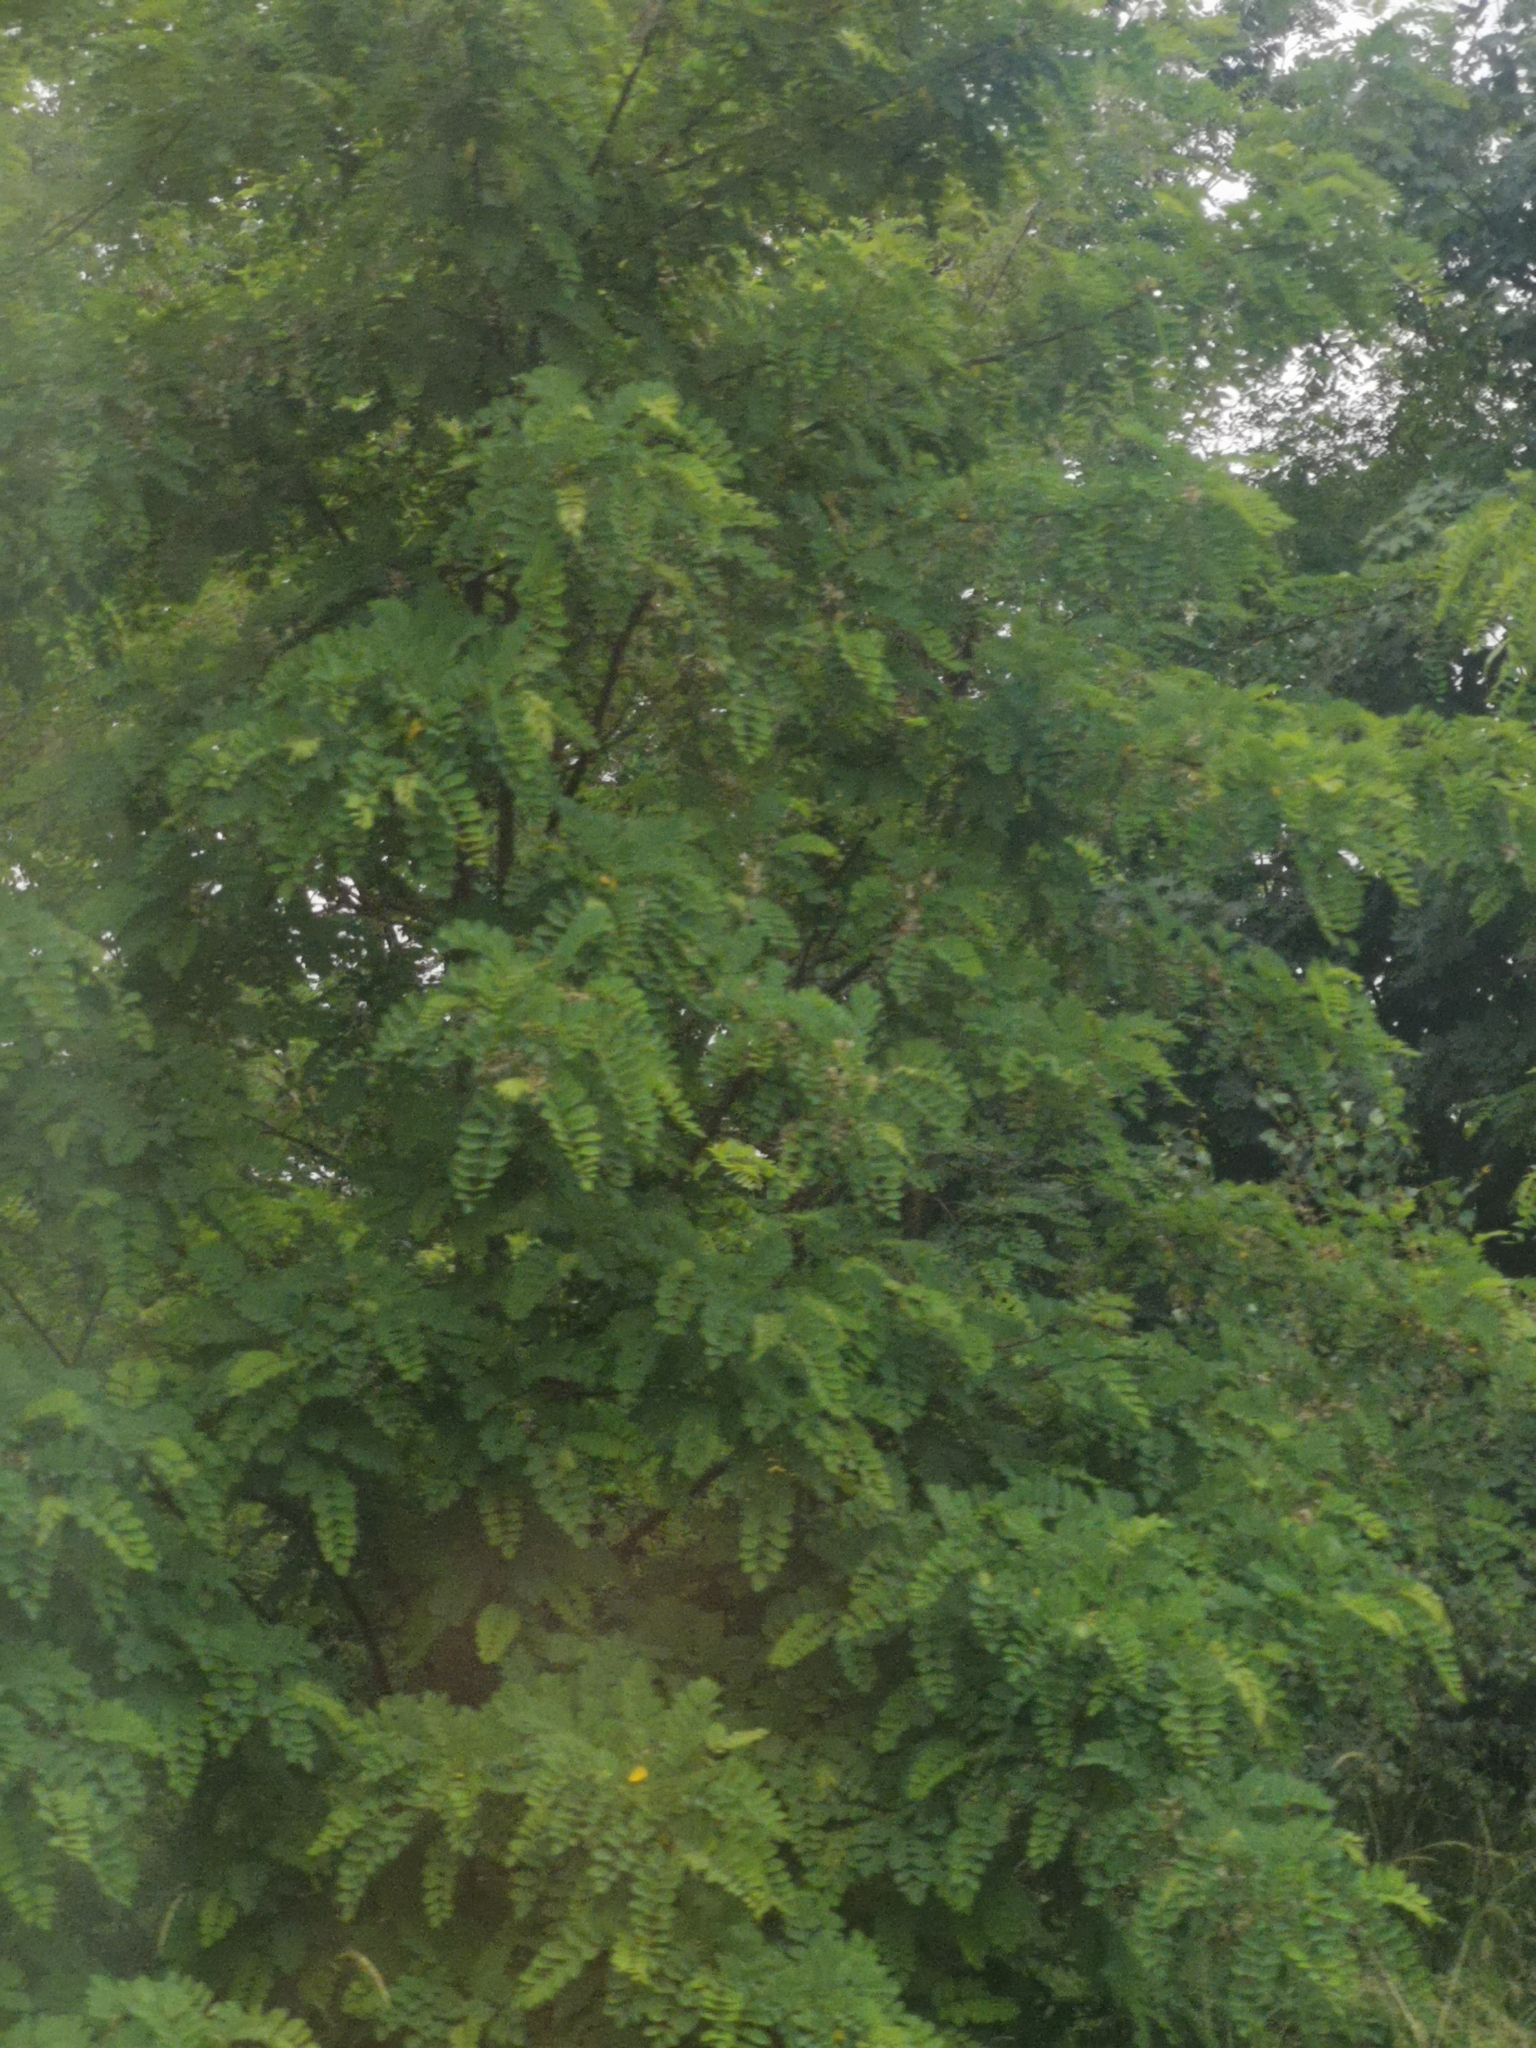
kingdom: Plantae
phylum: Tracheophyta
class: Magnoliopsida
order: Fabales
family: Fabaceae
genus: Robinia
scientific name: Robinia pseudoacacia
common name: Black locust
